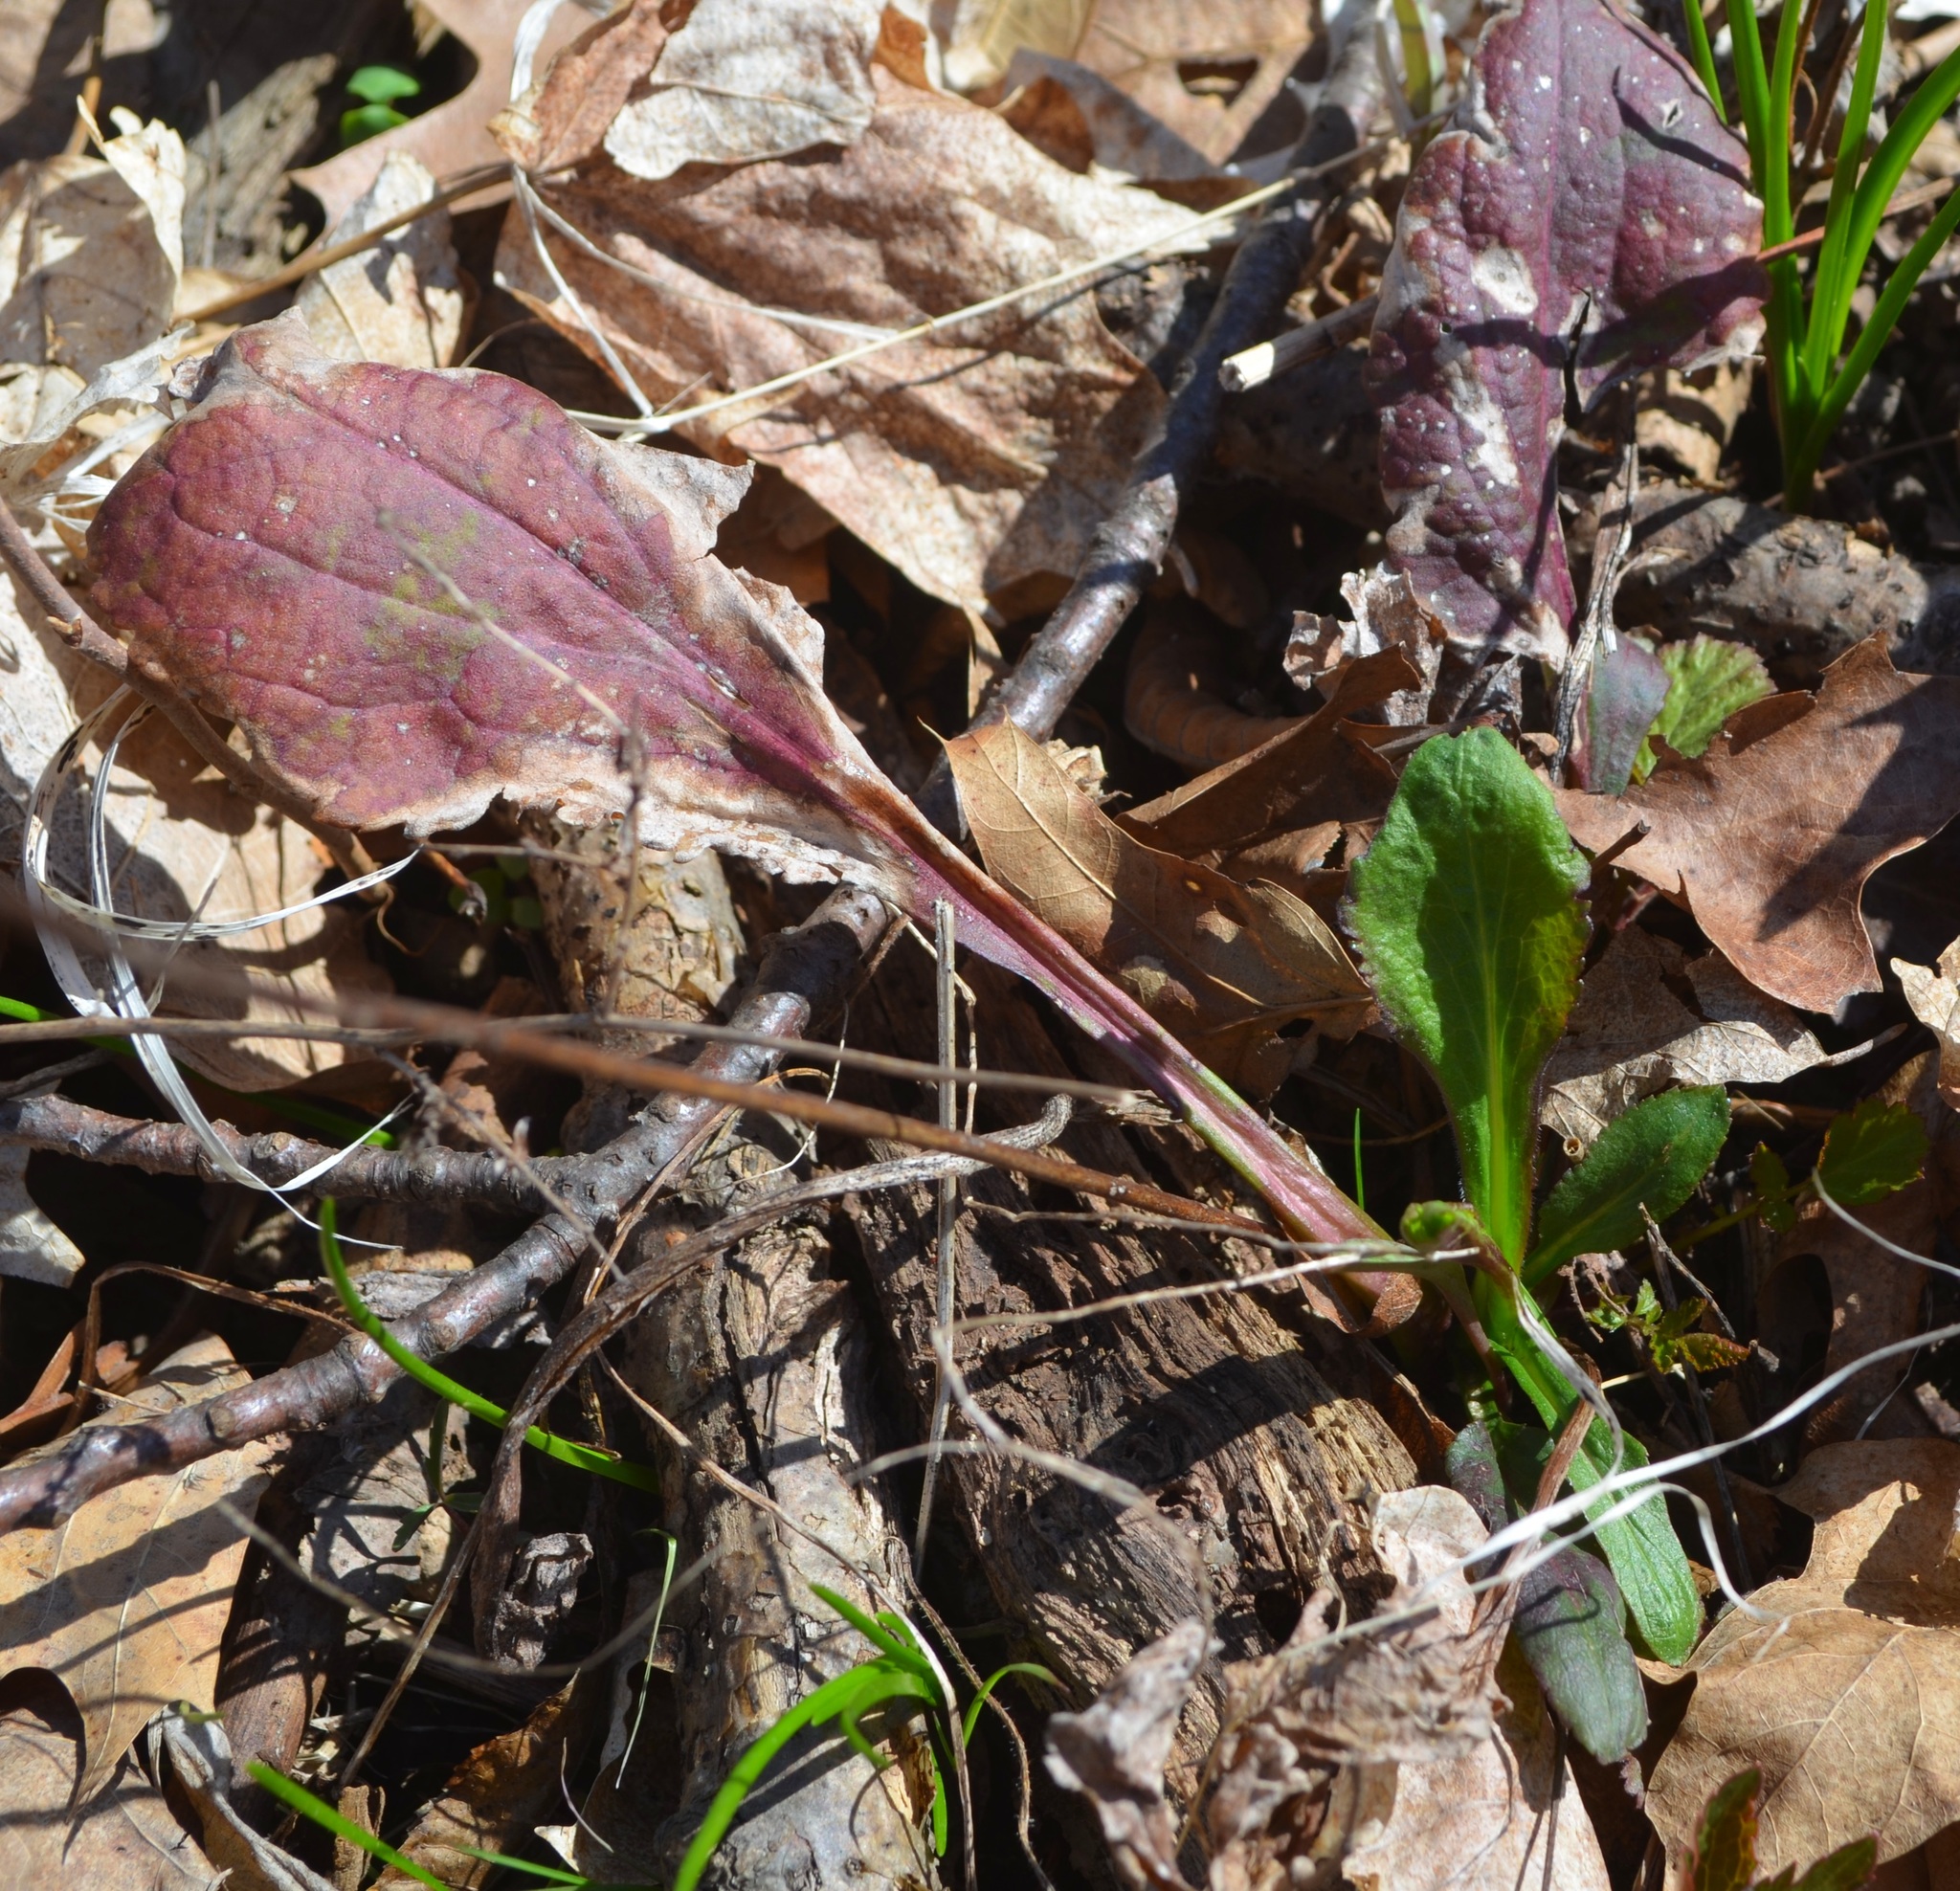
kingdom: Plantae
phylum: Tracheophyta
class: Magnoliopsida
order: Asterales
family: Asteraceae
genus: Solidago
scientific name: Solidago patula
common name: Rough-leaf goldenrod
